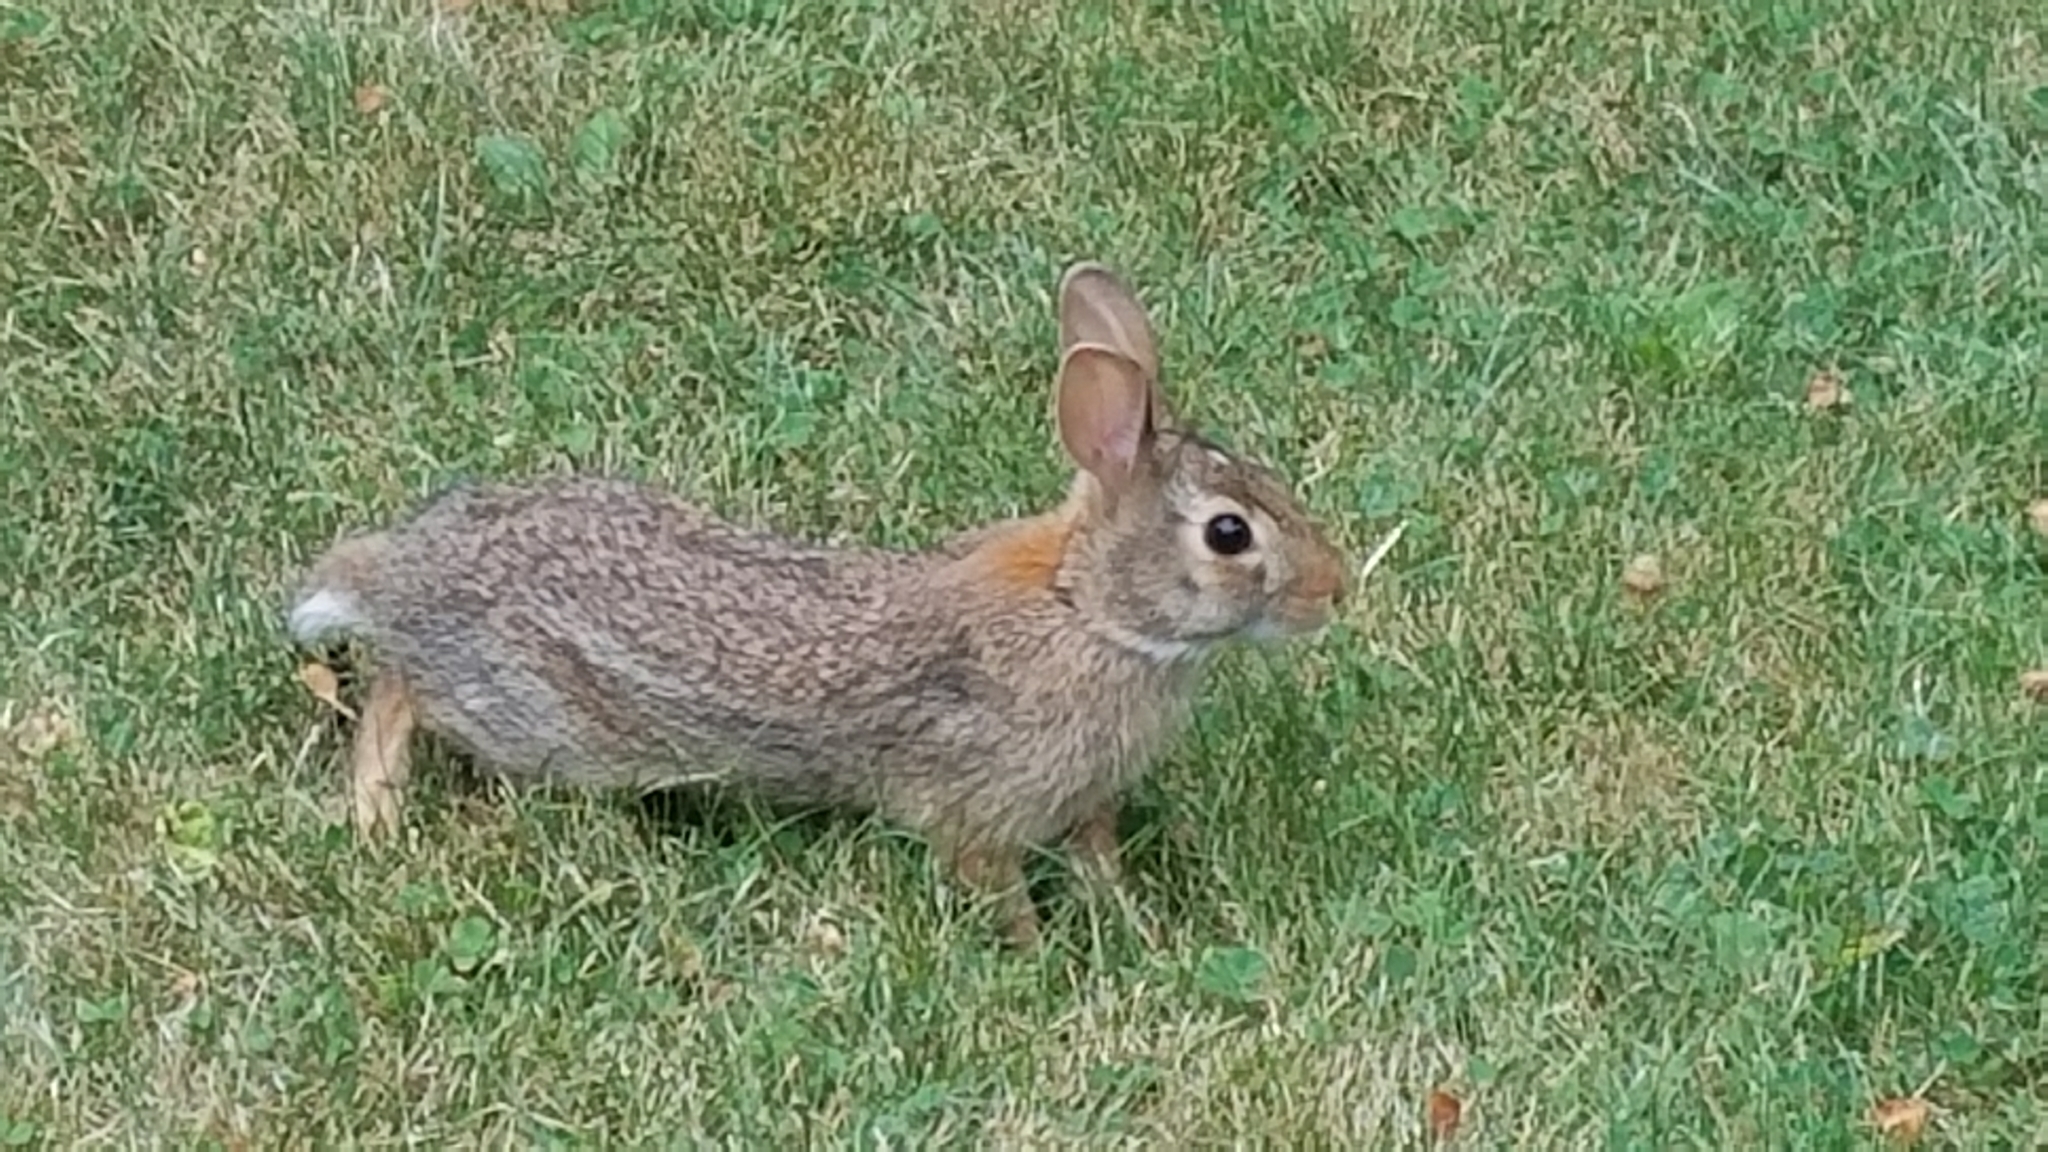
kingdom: Animalia
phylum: Chordata
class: Mammalia
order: Lagomorpha
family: Leporidae
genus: Sylvilagus
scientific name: Sylvilagus floridanus
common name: Eastern cottontail
